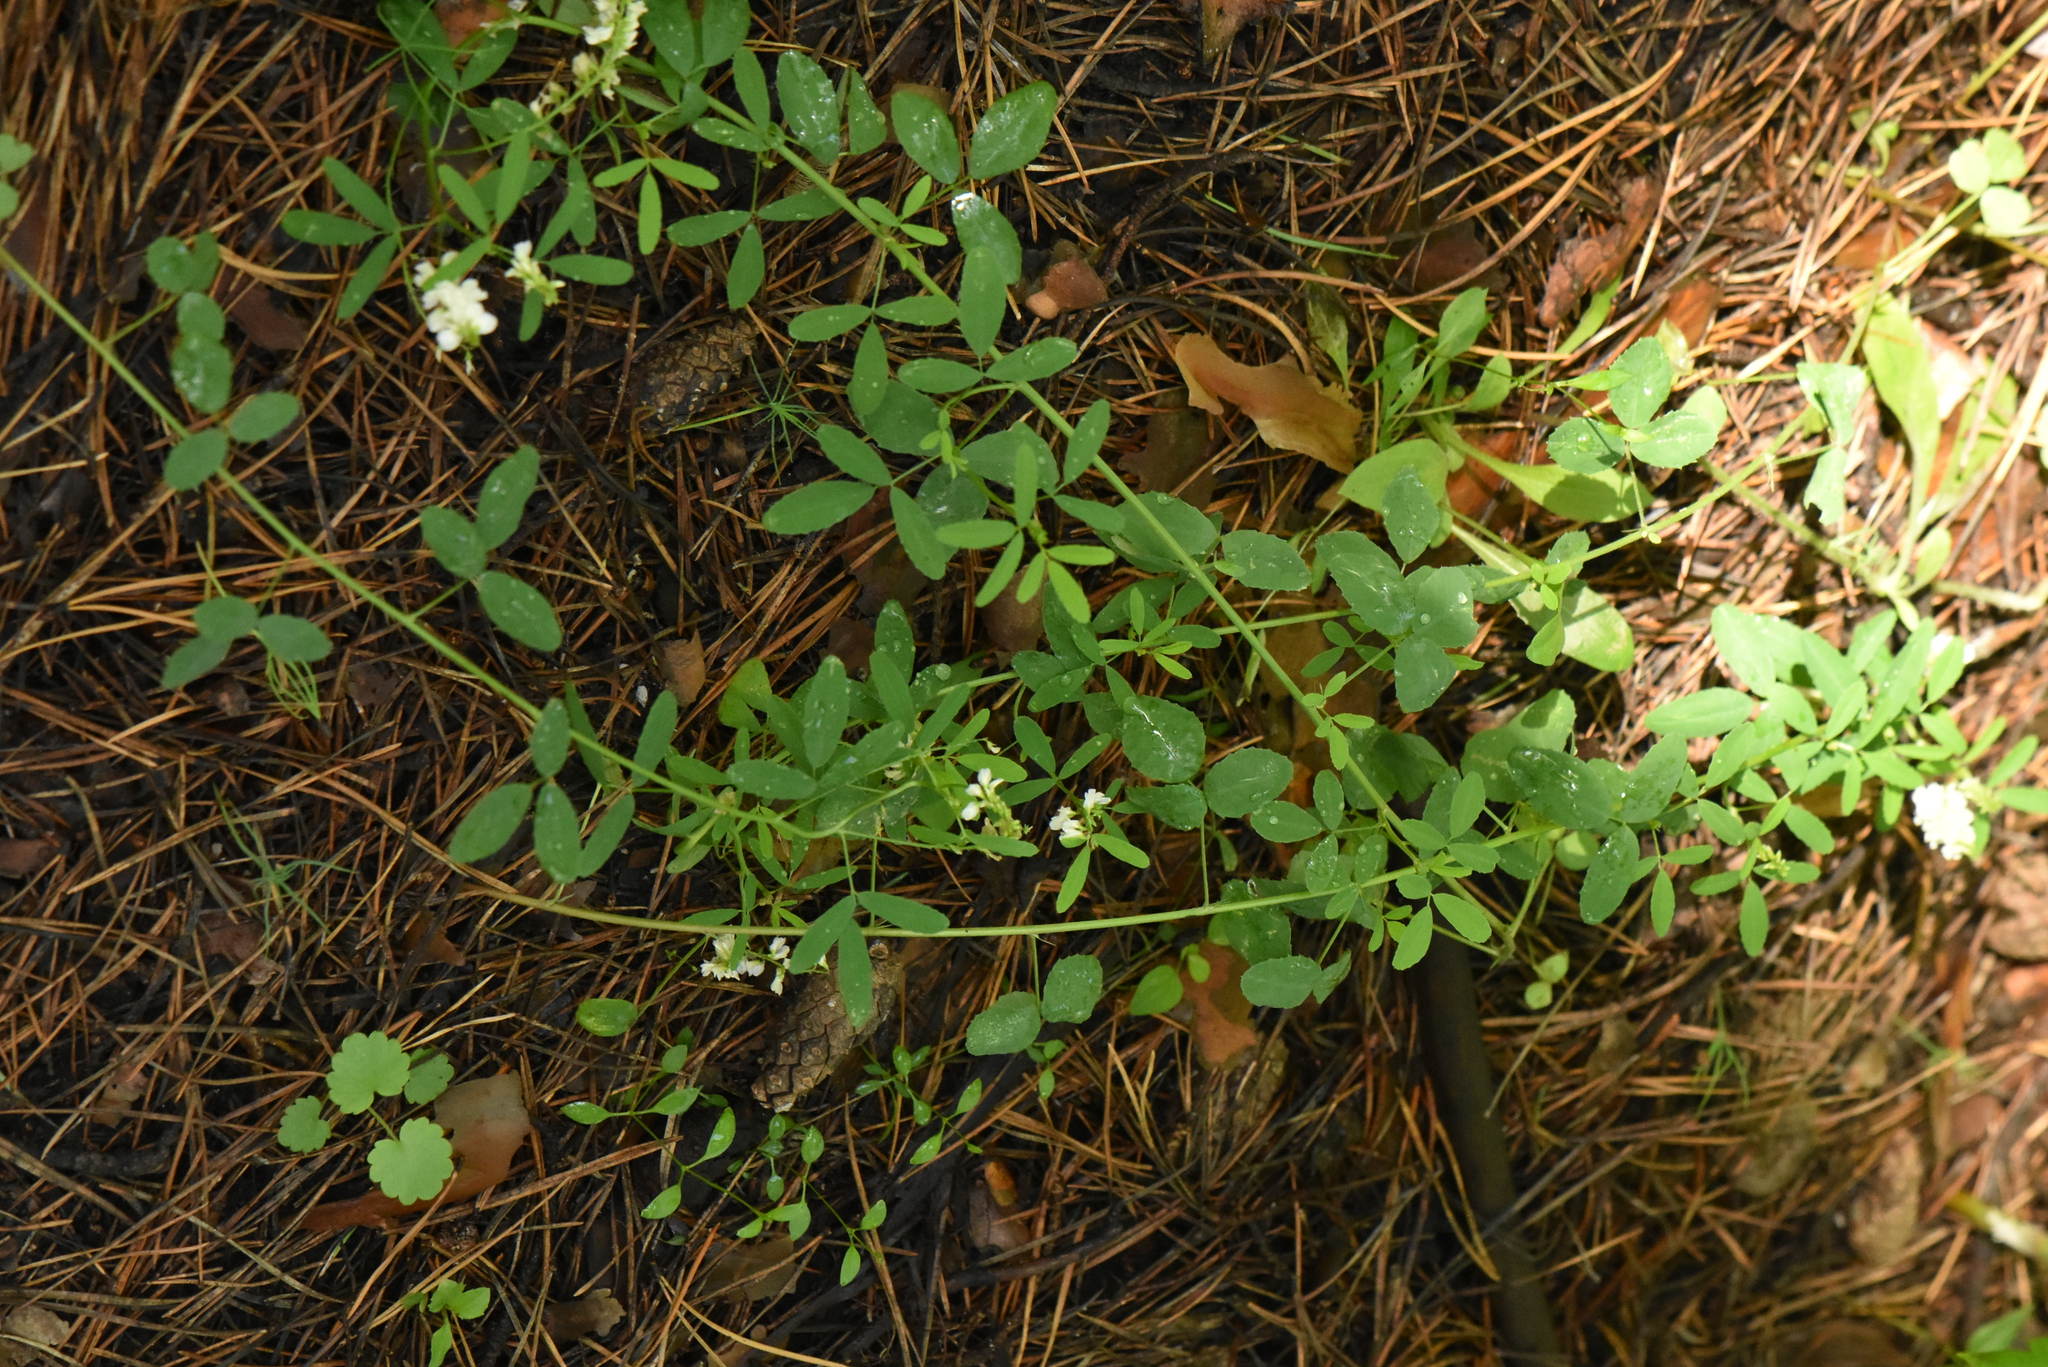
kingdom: Plantae
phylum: Tracheophyta
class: Magnoliopsida
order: Fabales
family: Fabaceae
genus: Melilotus
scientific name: Melilotus albus
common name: White melilot
